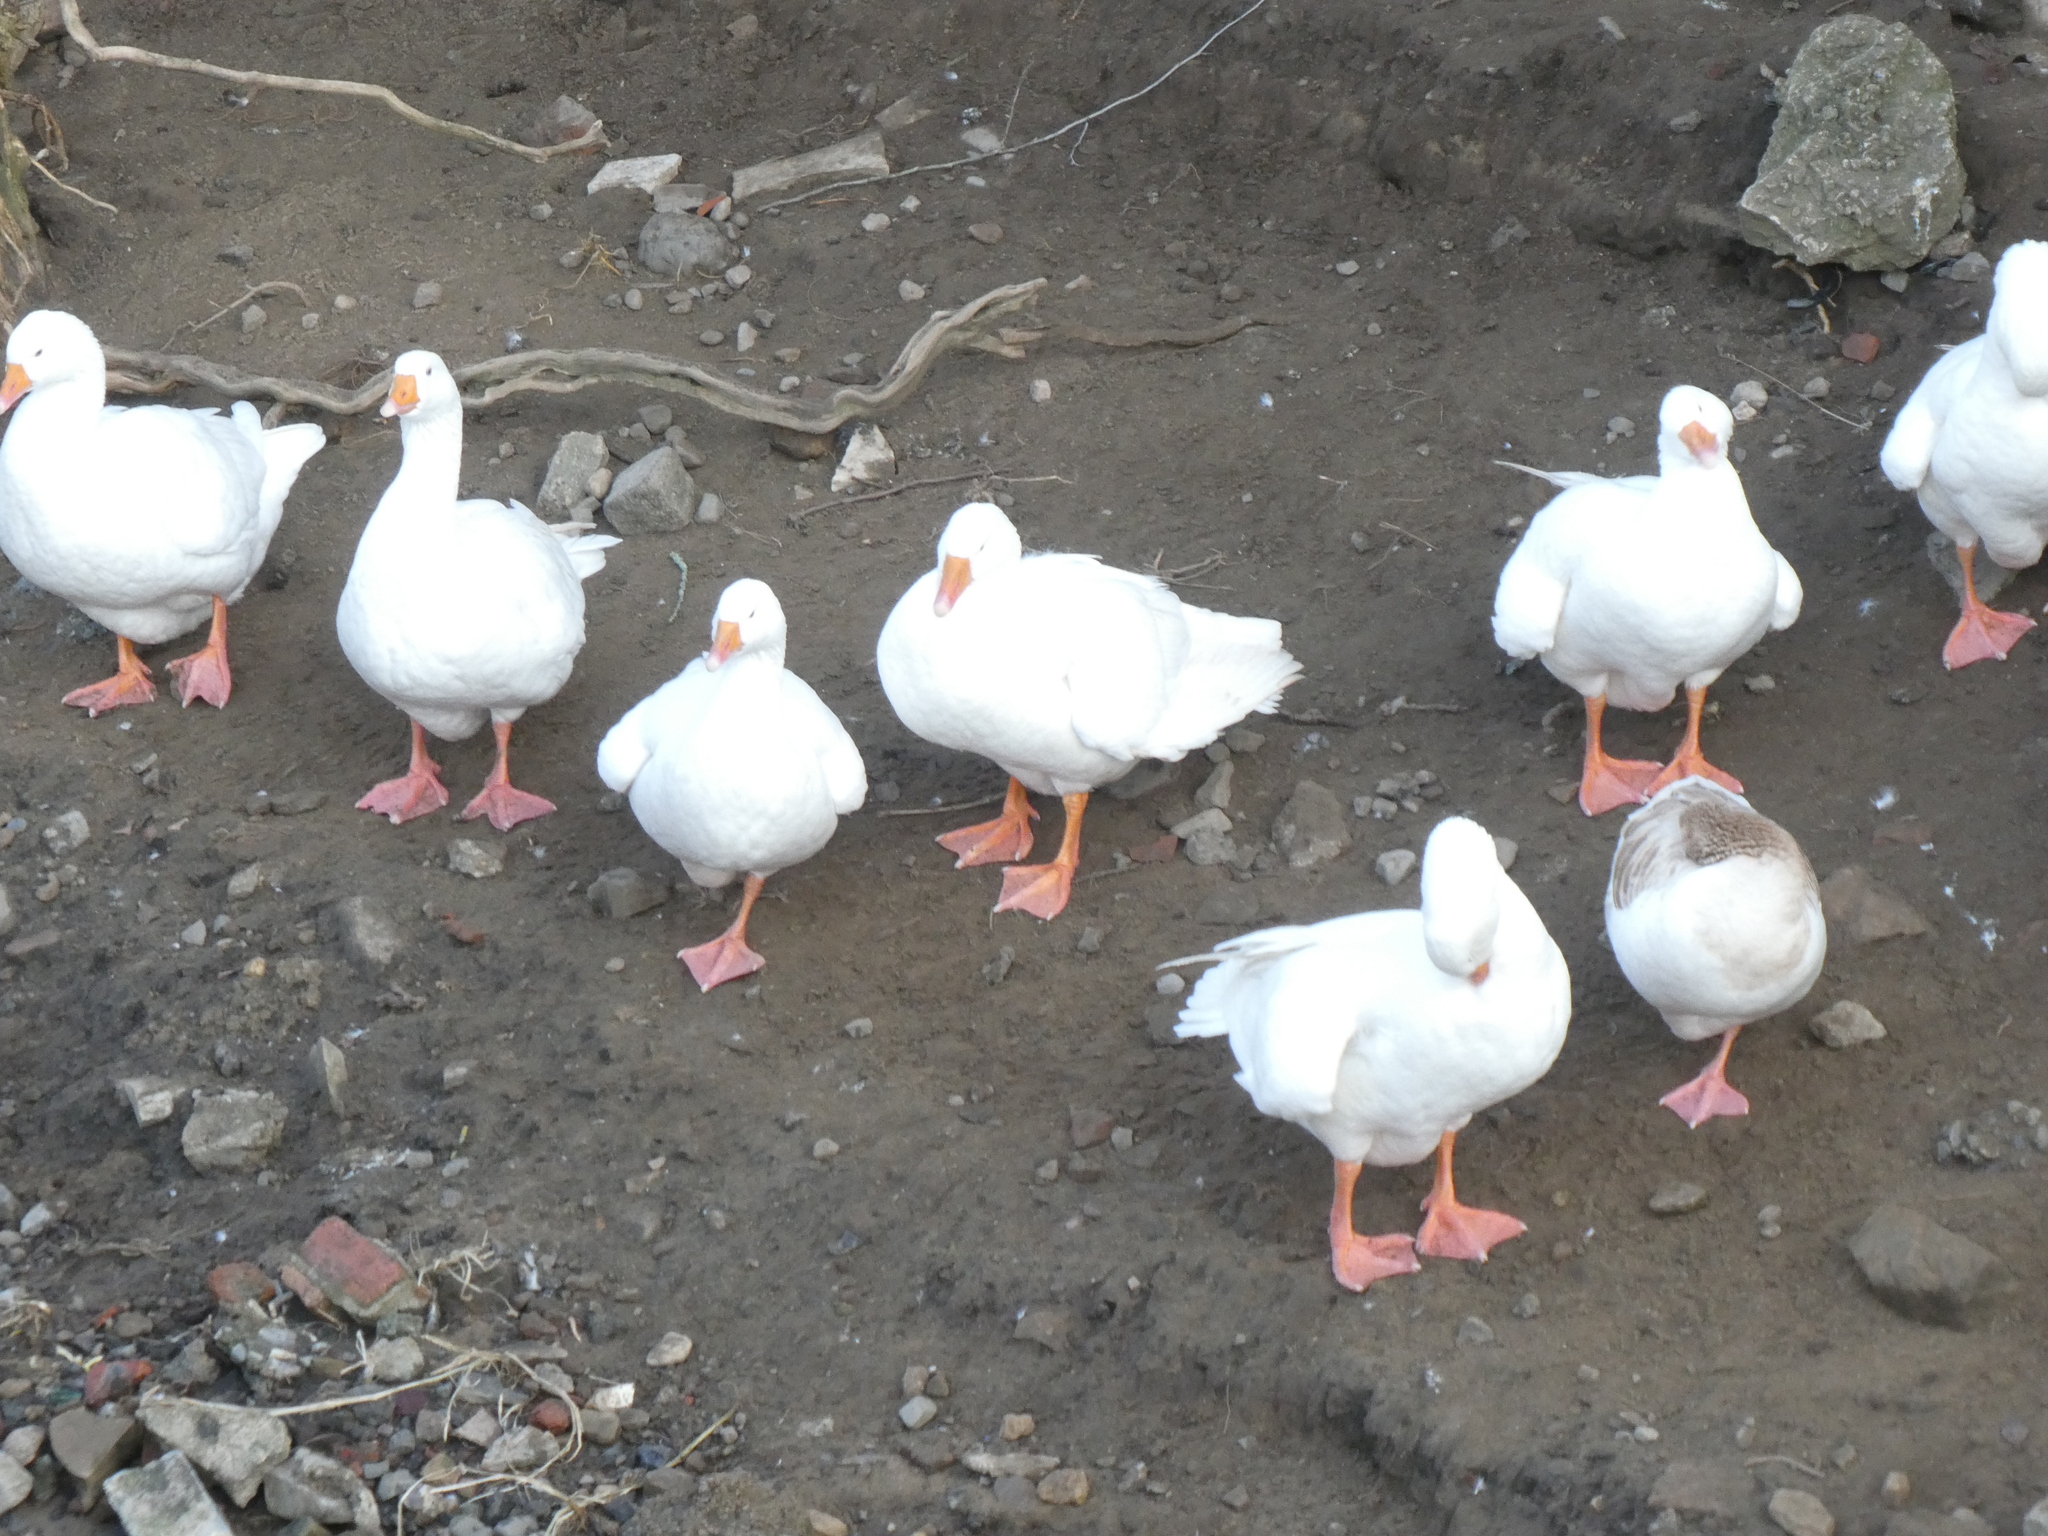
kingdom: Animalia
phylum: Chordata
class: Aves
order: Anseriformes
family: Anatidae
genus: Anser
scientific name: Anser anser
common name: Greylag goose
